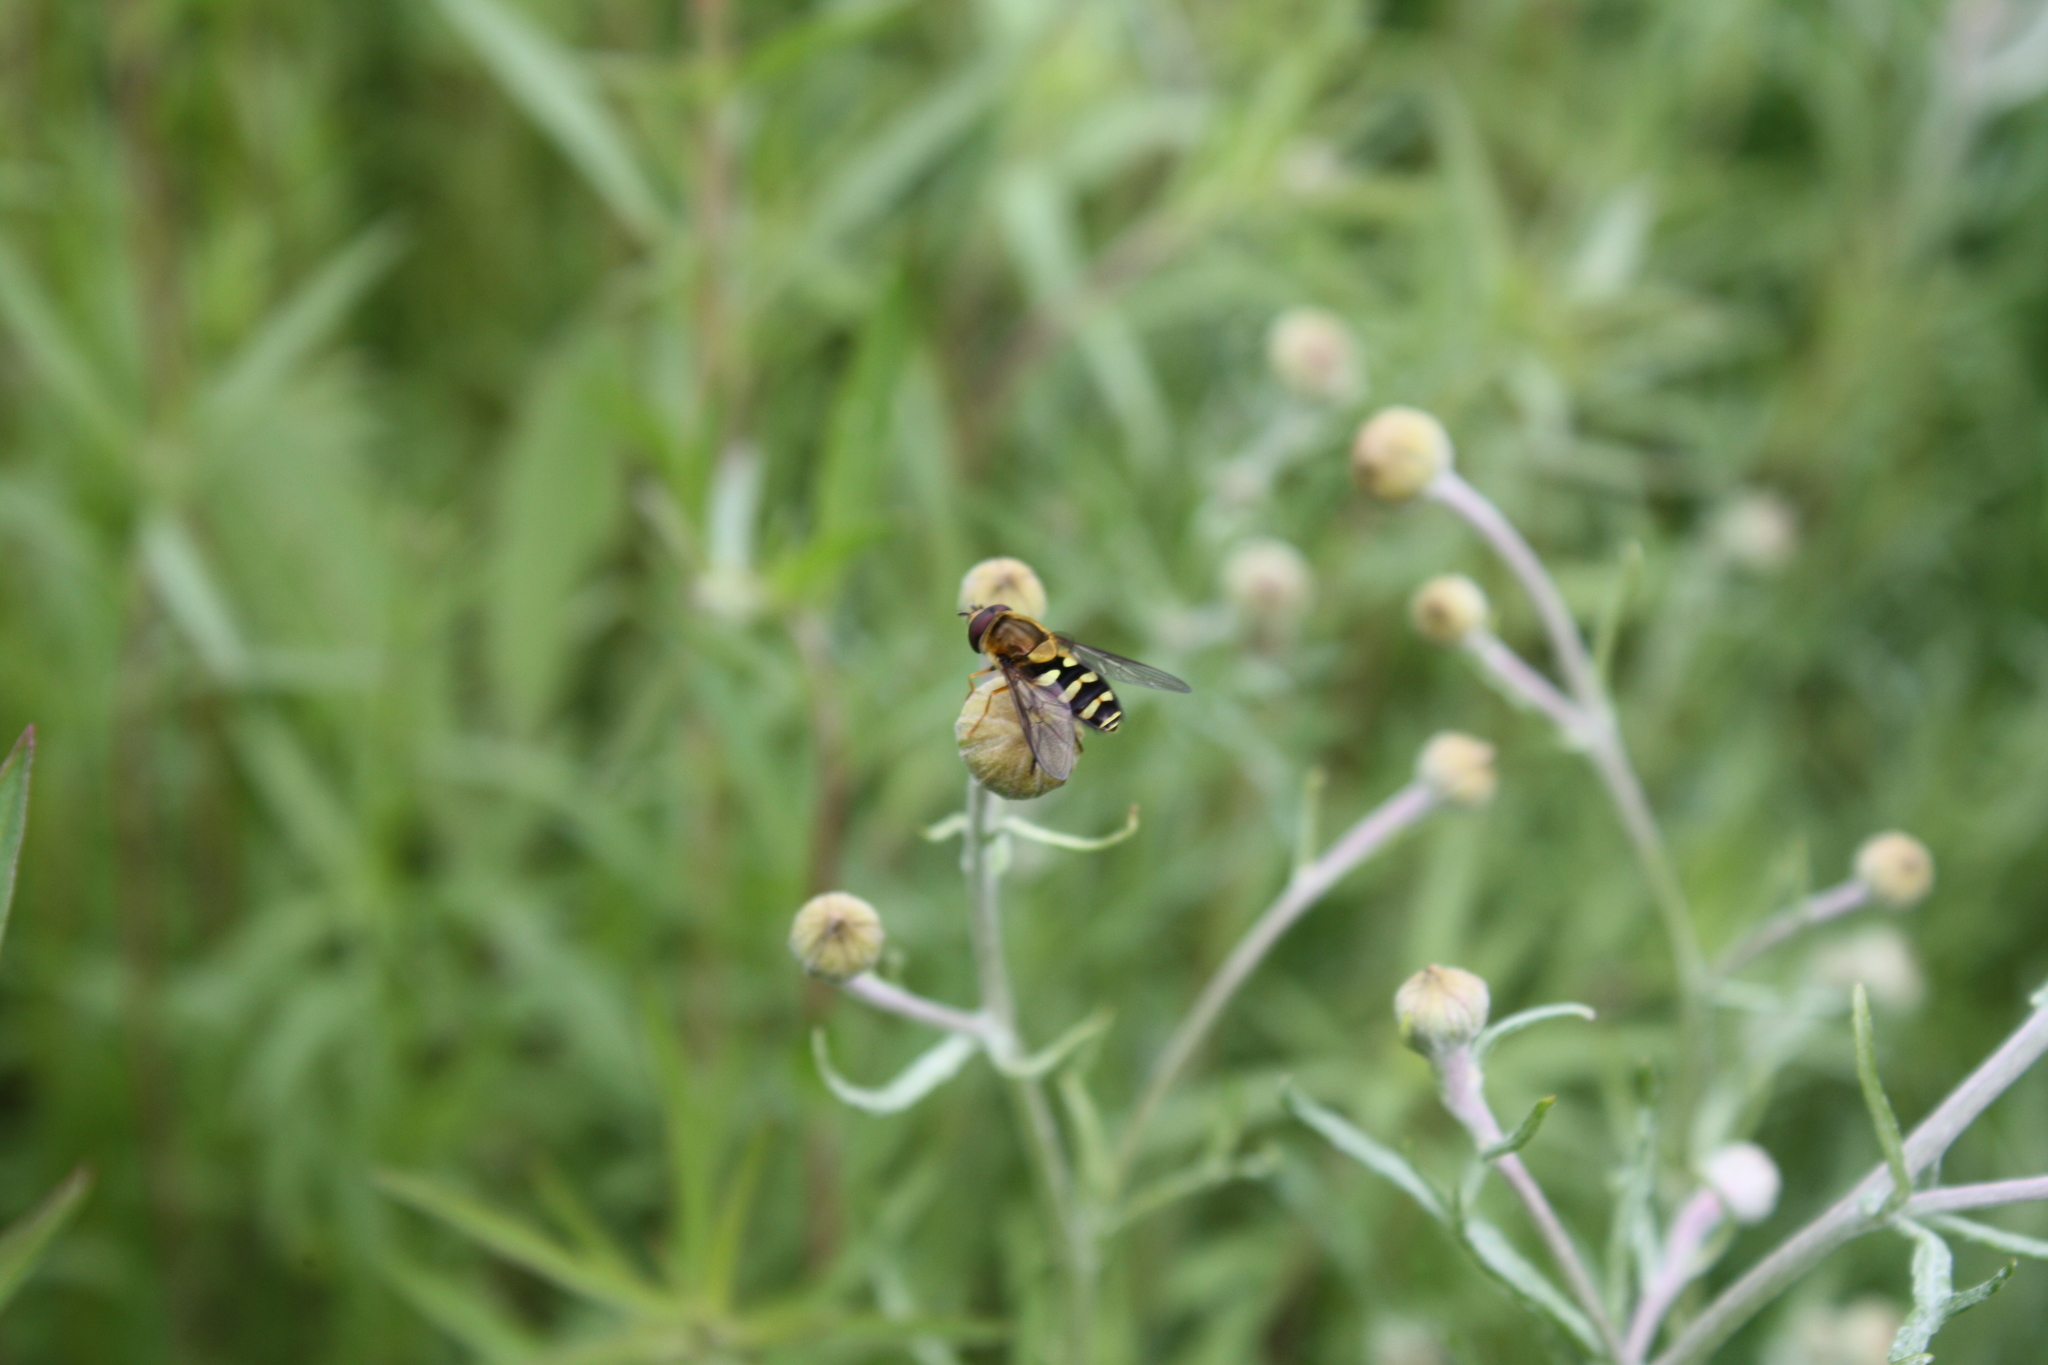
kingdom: Animalia
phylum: Arthropoda
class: Insecta
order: Diptera
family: Syrphidae
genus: Syrphus
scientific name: Syrphus opinator
